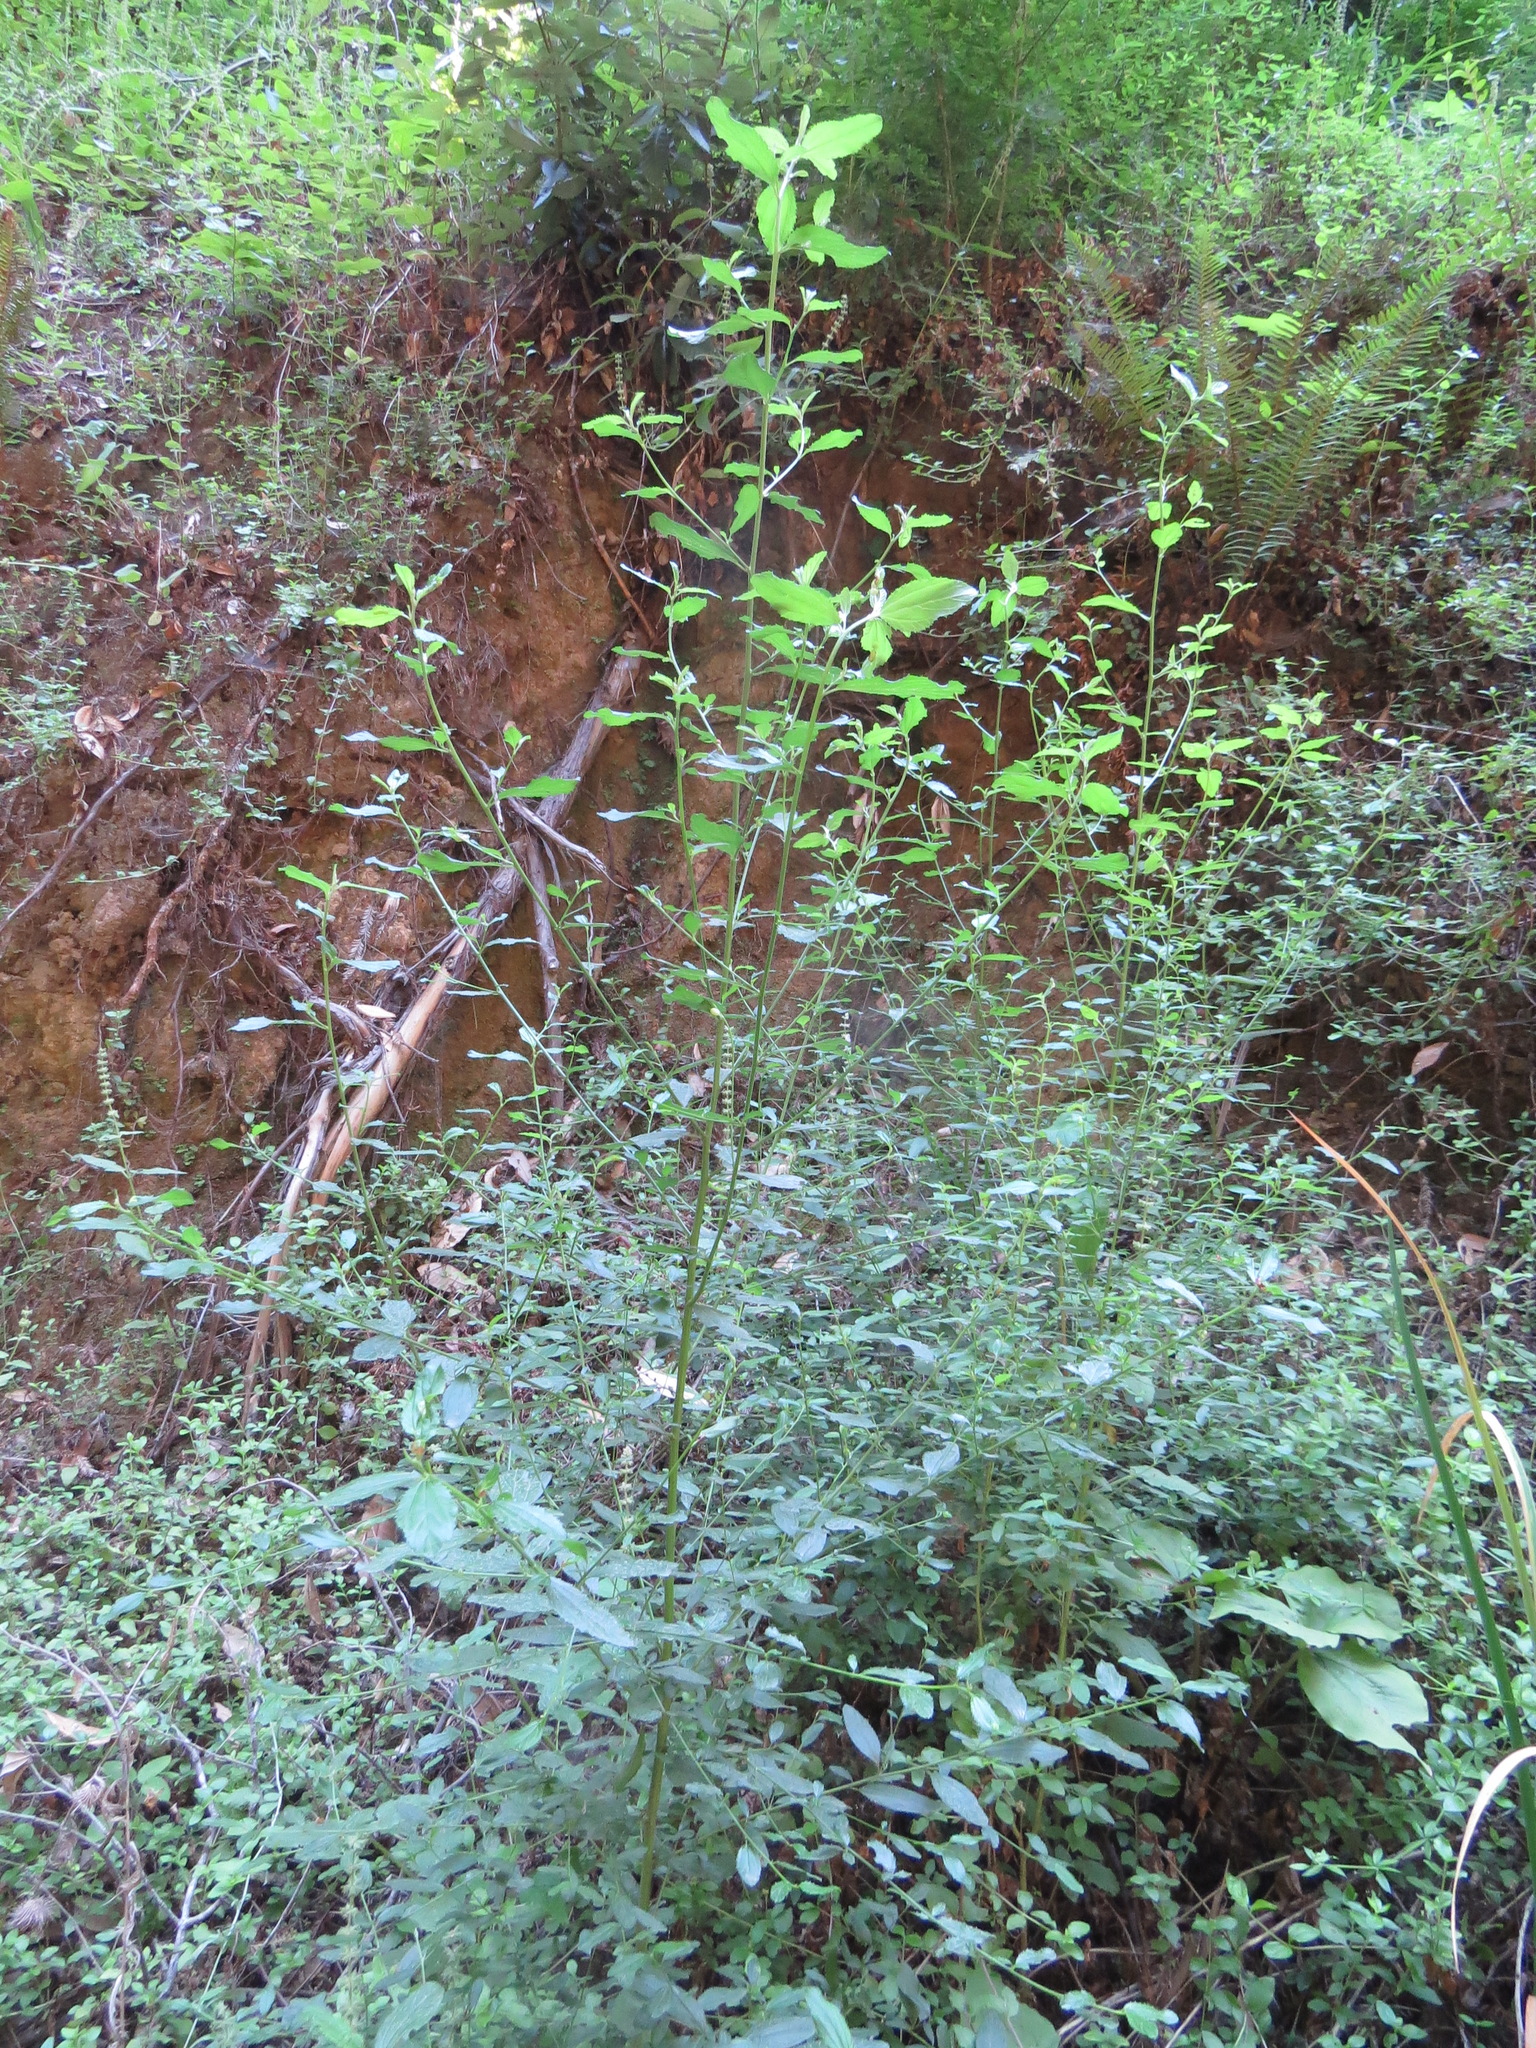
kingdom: Animalia
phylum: Arthropoda
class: Insecta
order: Diptera
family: Cecidomyiidae
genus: Asphondylia
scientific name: Asphondylia
